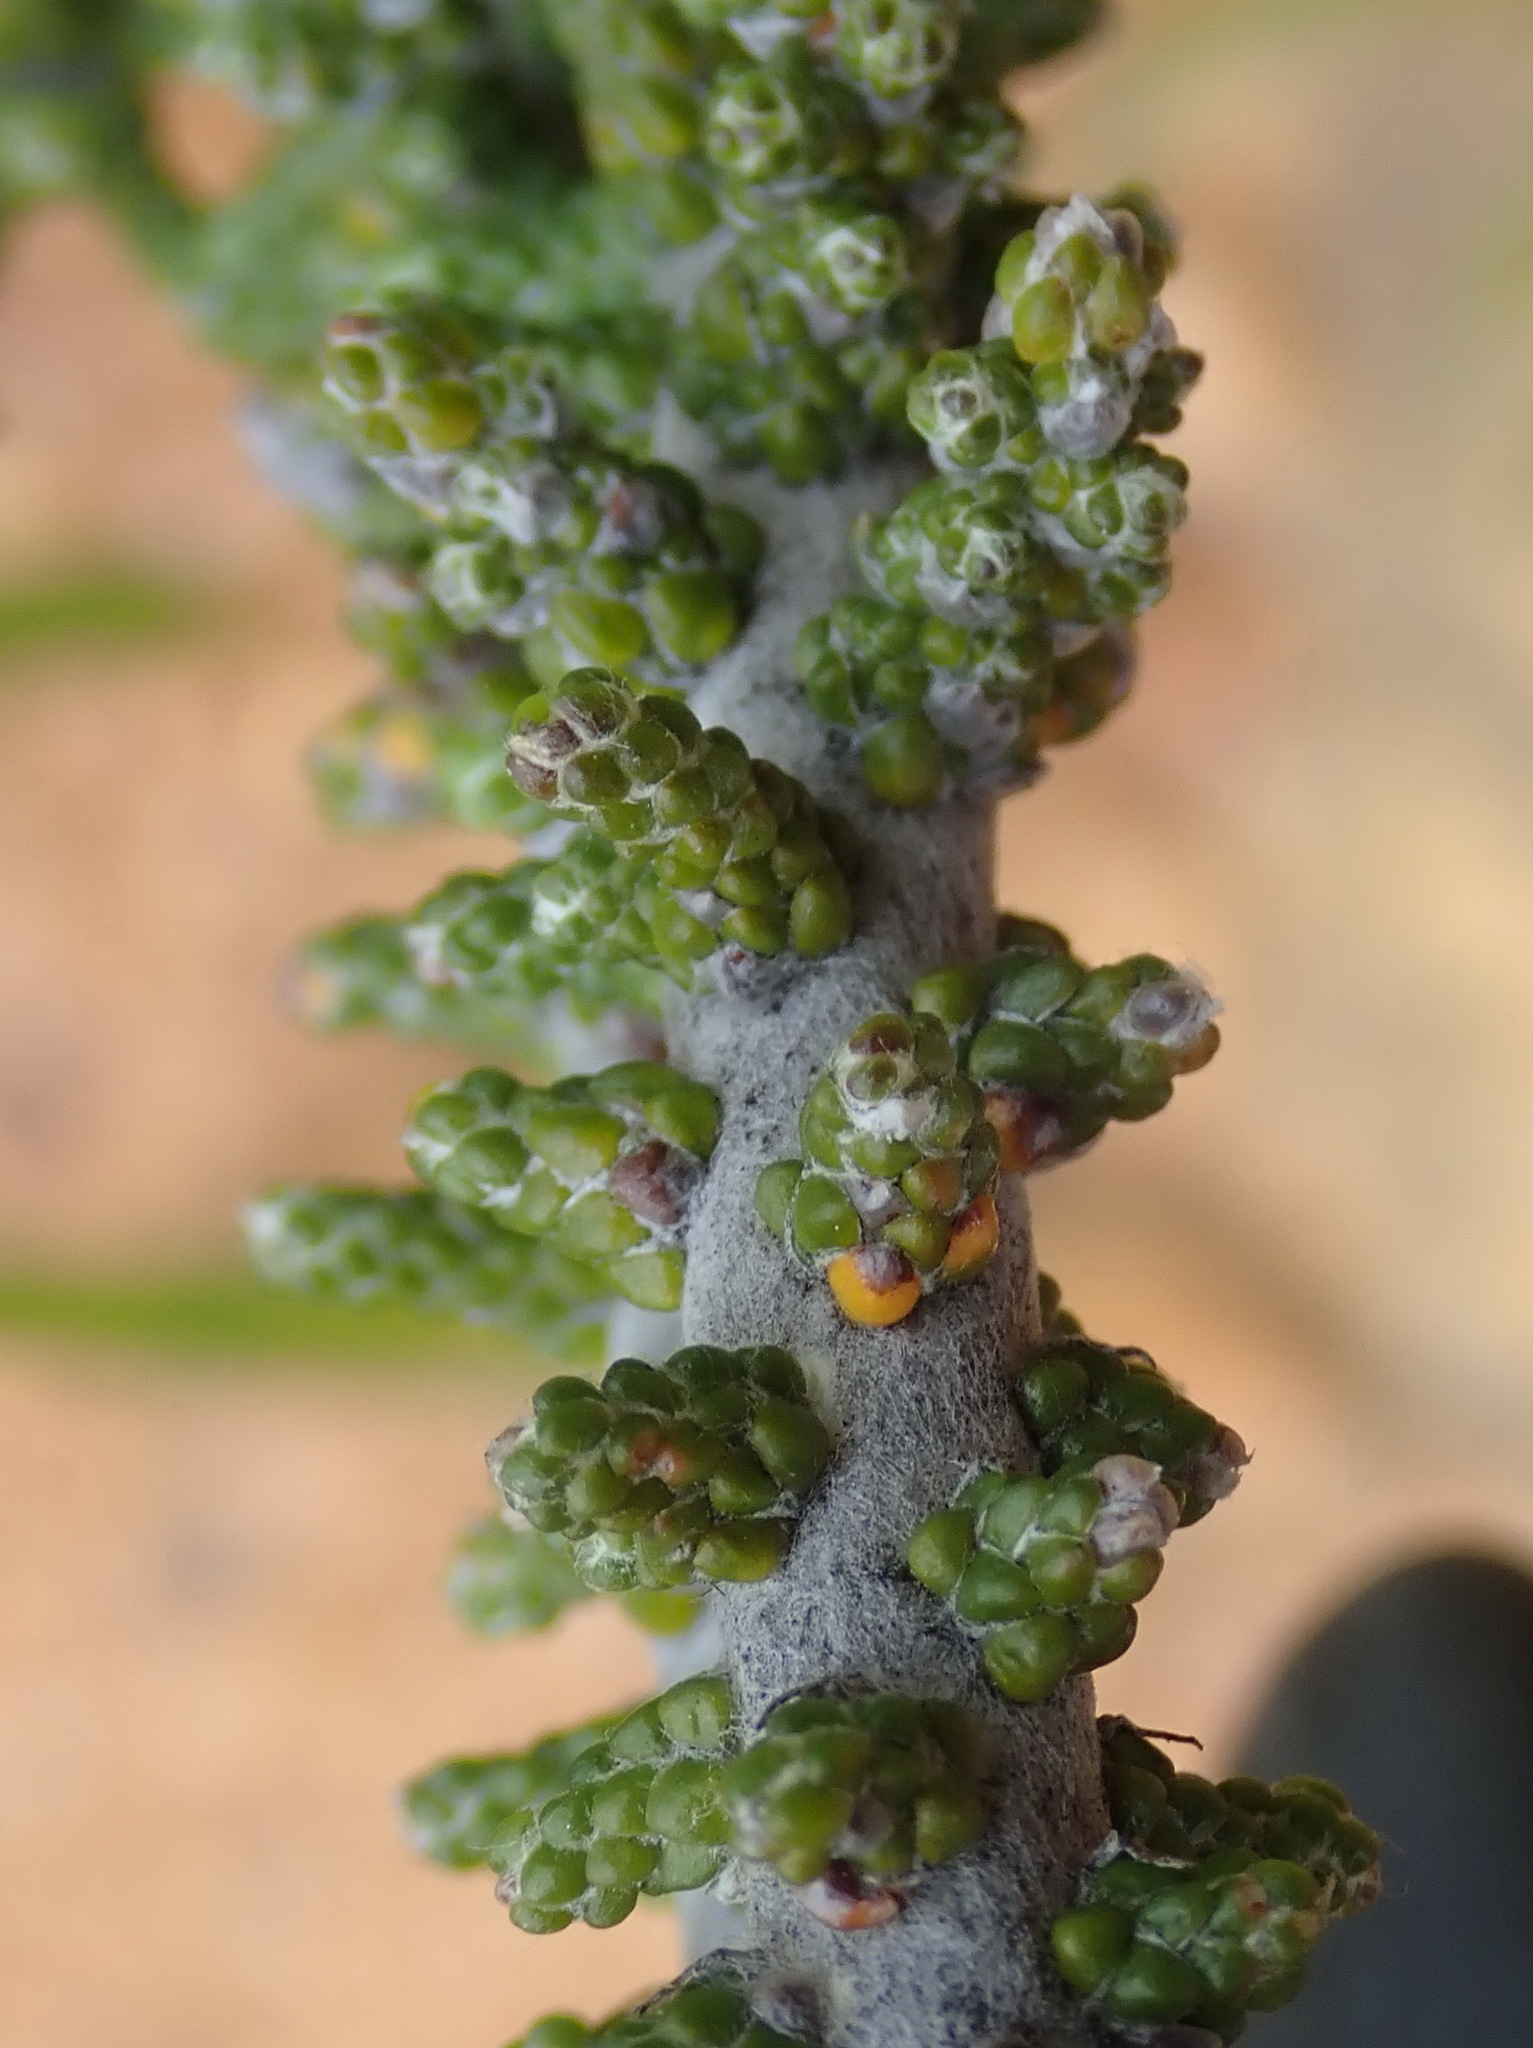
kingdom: Plantae
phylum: Tracheophyta
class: Magnoliopsida
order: Asterales
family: Asteraceae
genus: Phaenocoma
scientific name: Phaenocoma prolifera
